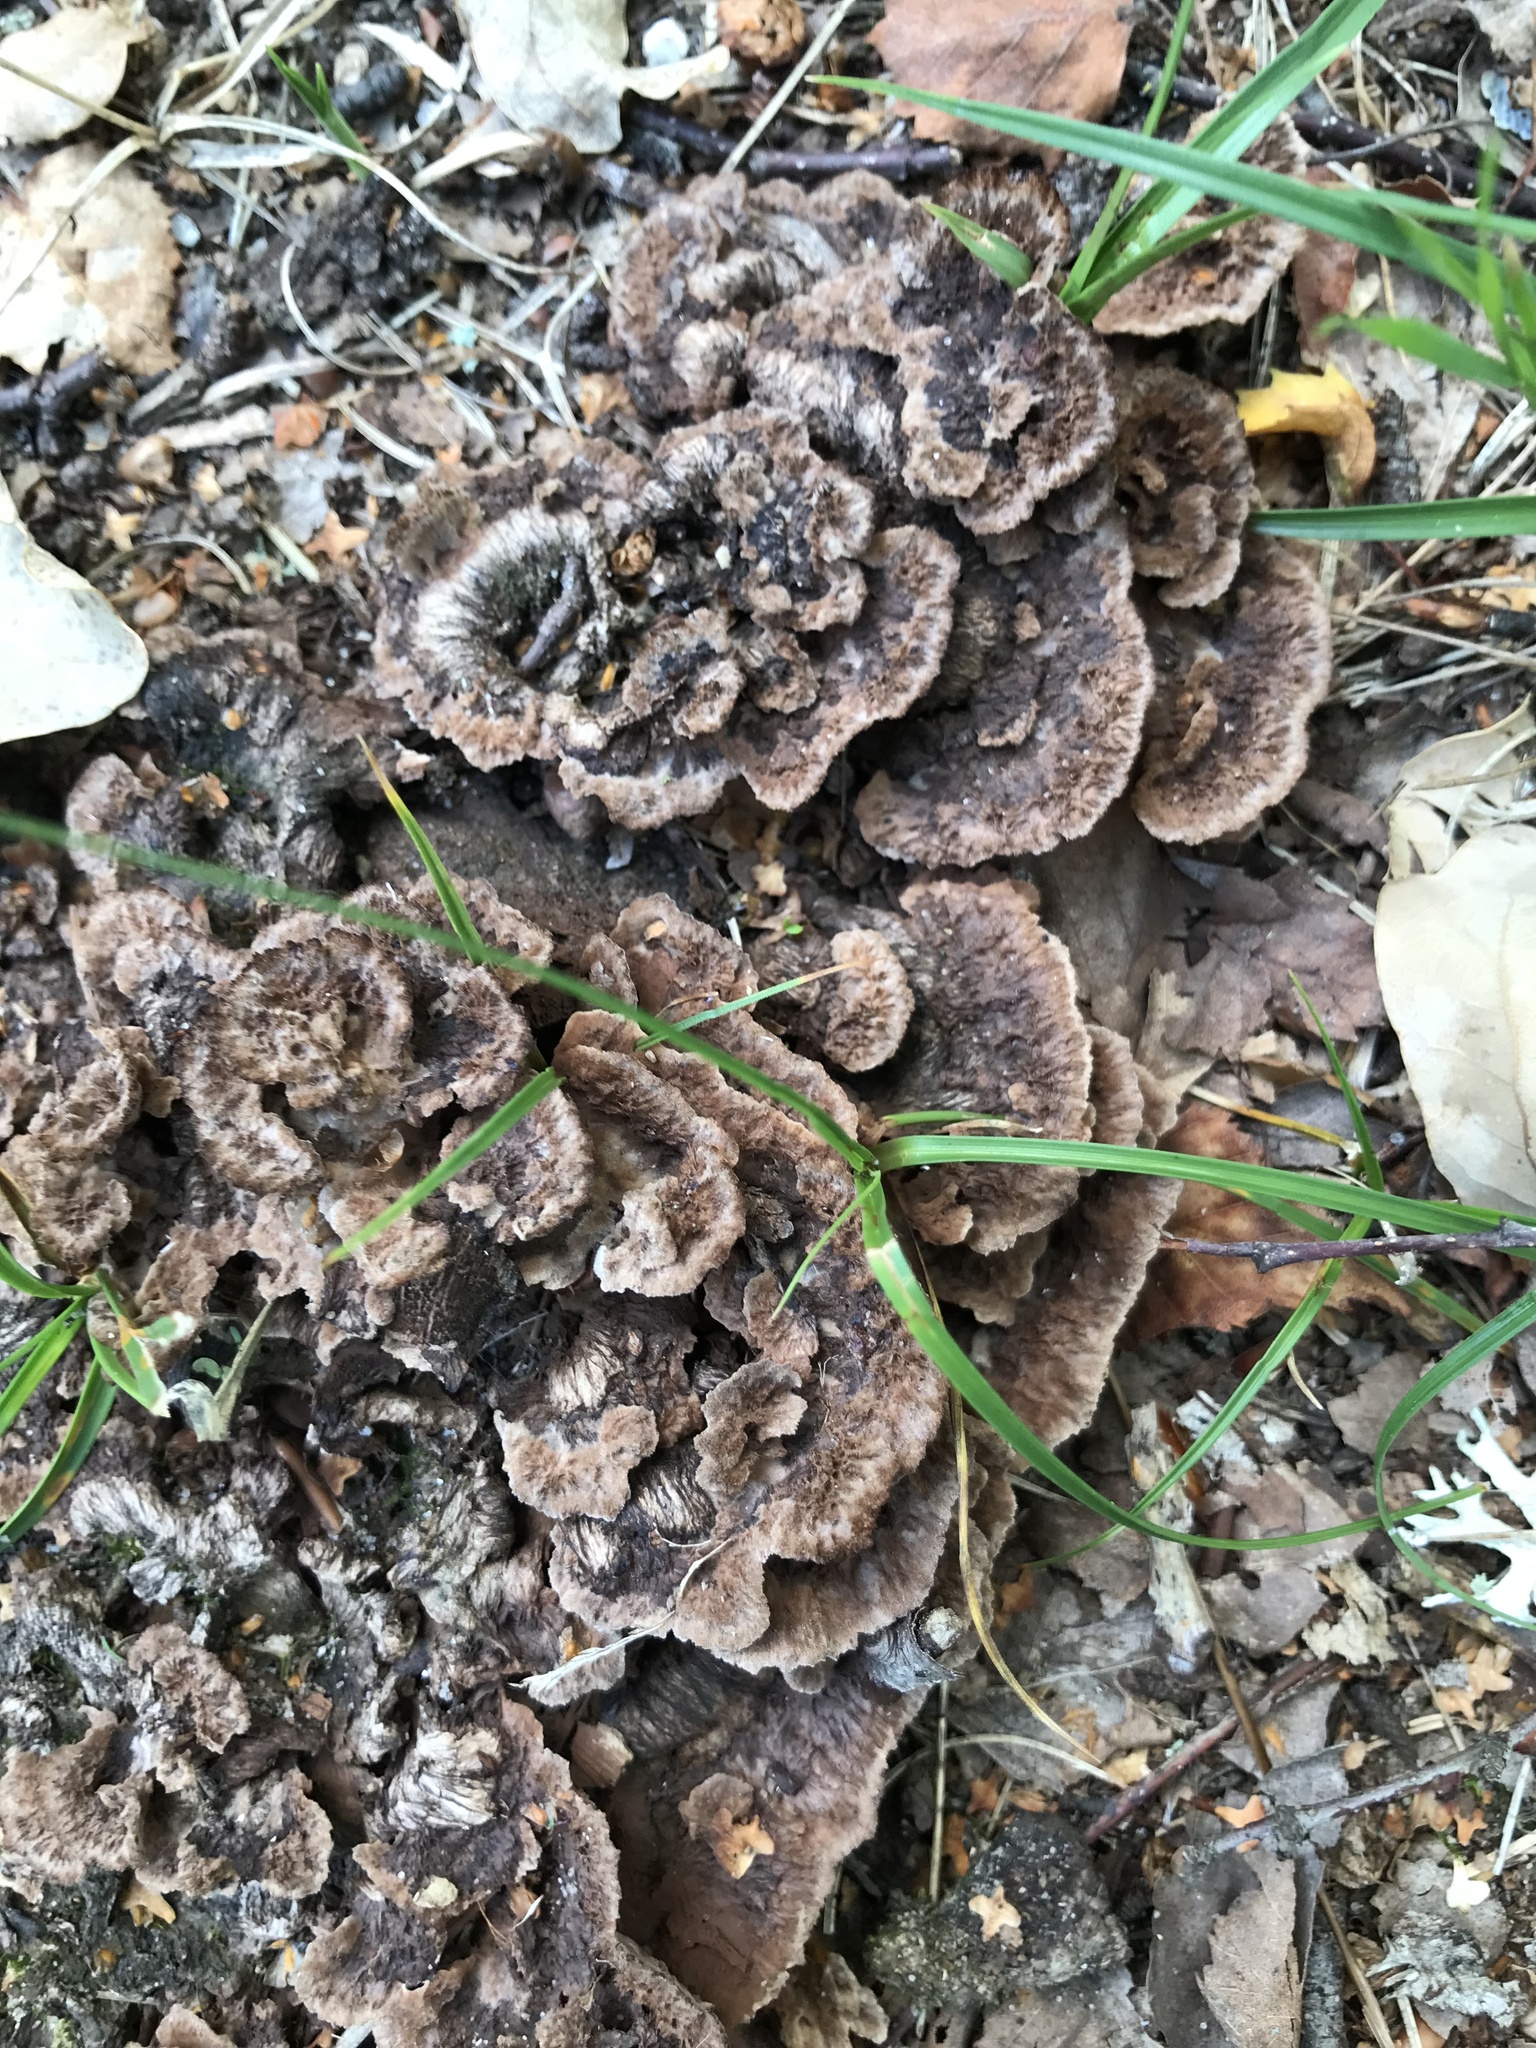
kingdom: Fungi
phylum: Basidiomycota
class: Agaricomycetes
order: Thelephorales
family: Thelephoraceae
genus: Thelephora
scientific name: Thelephora terrestris
